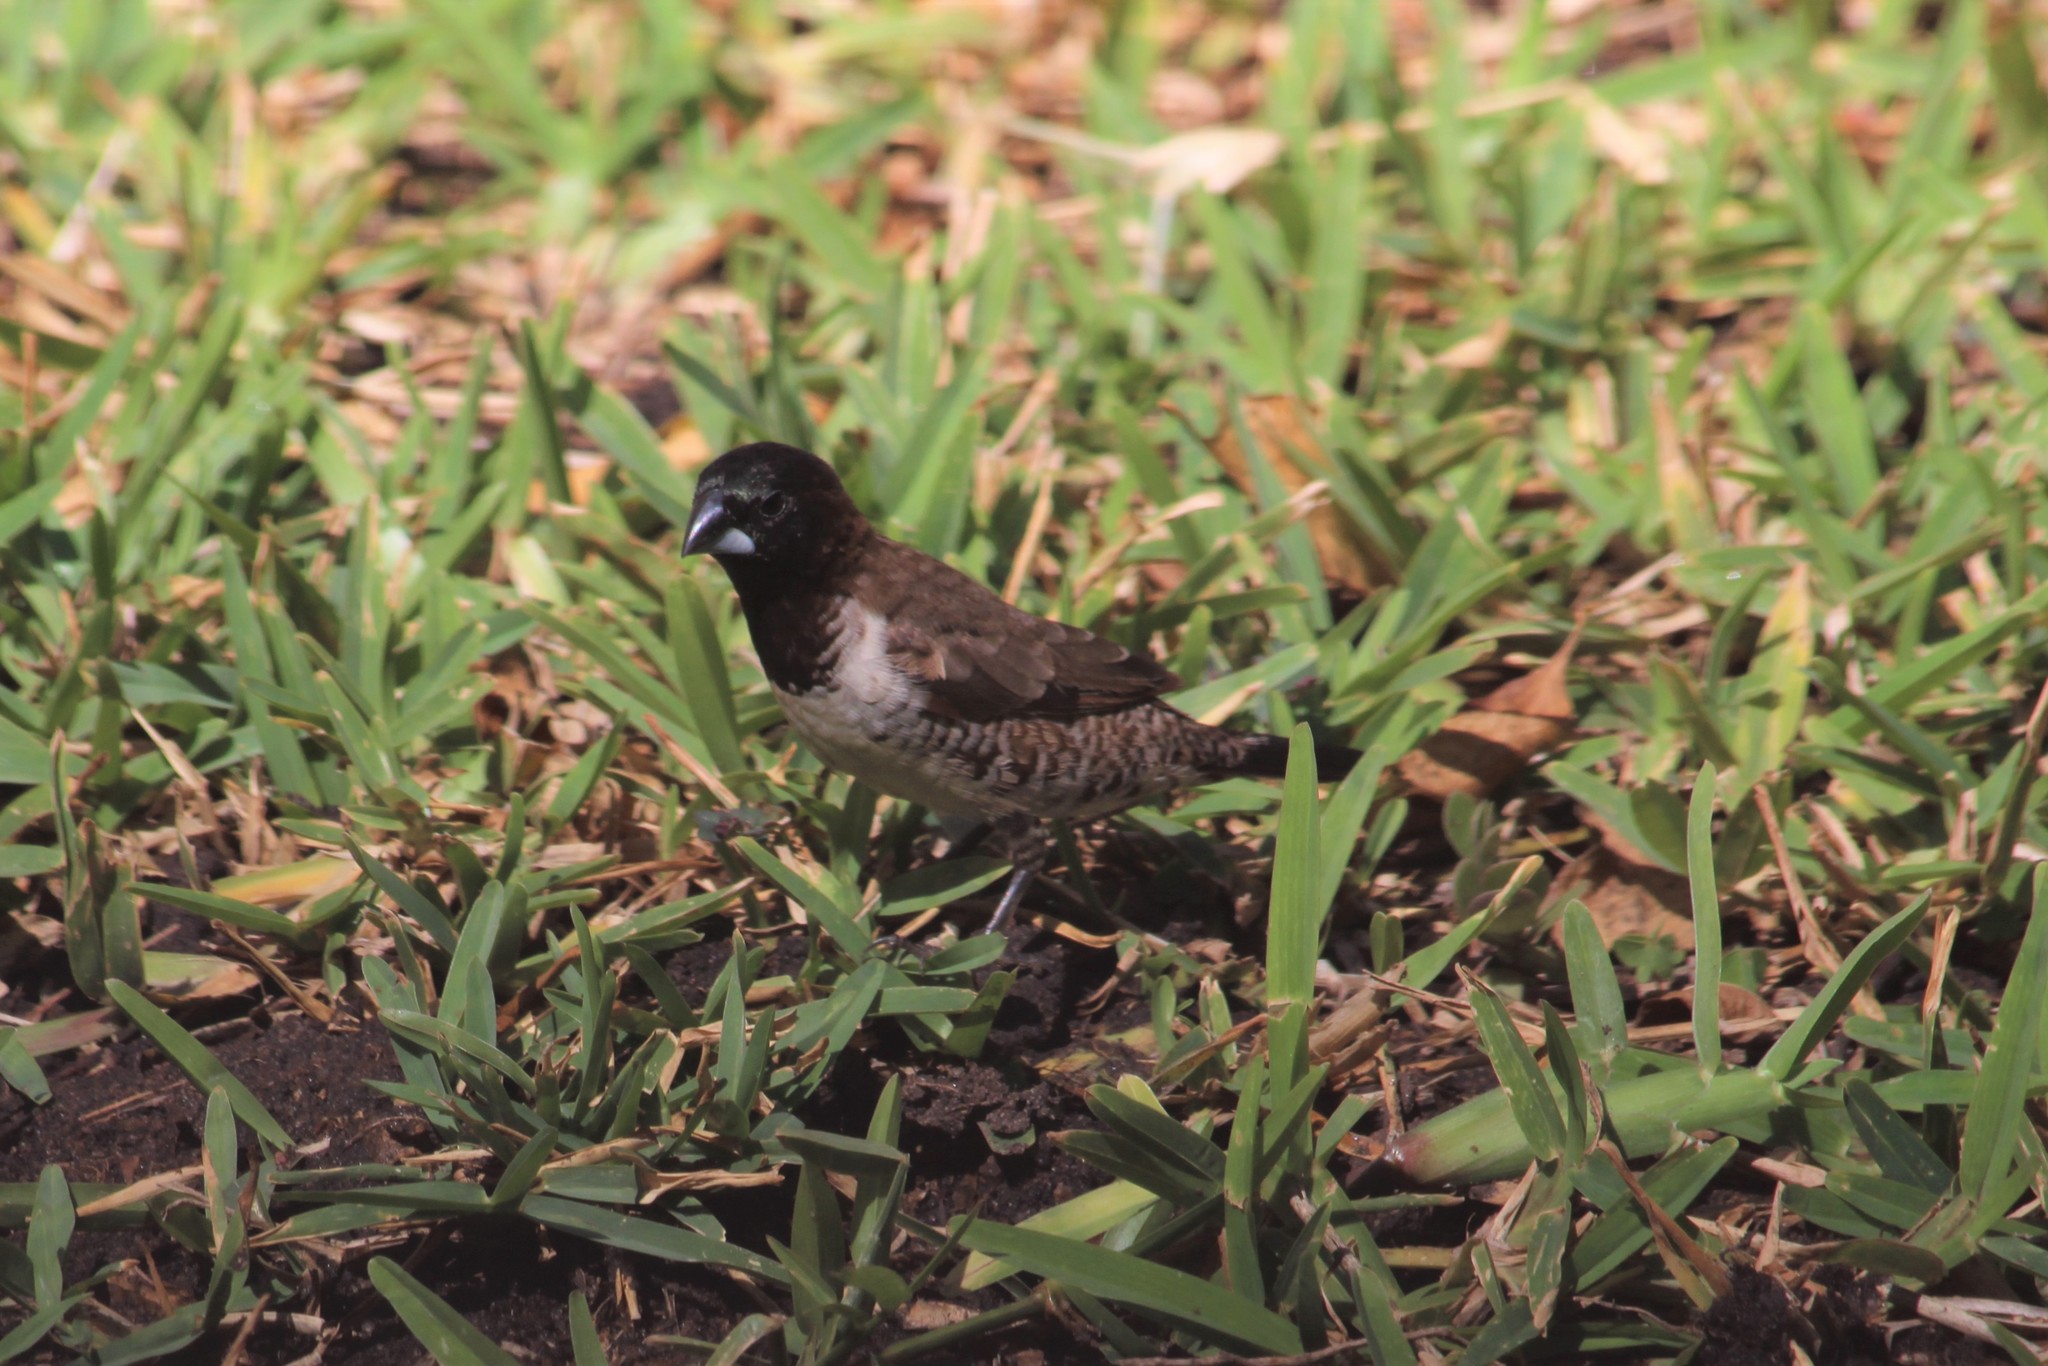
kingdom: Animalia
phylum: Chordata
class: Aves
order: Passeriformes
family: Estrildidae
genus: Lonchura
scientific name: Lonchura cucullata
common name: Bronze mannikin
